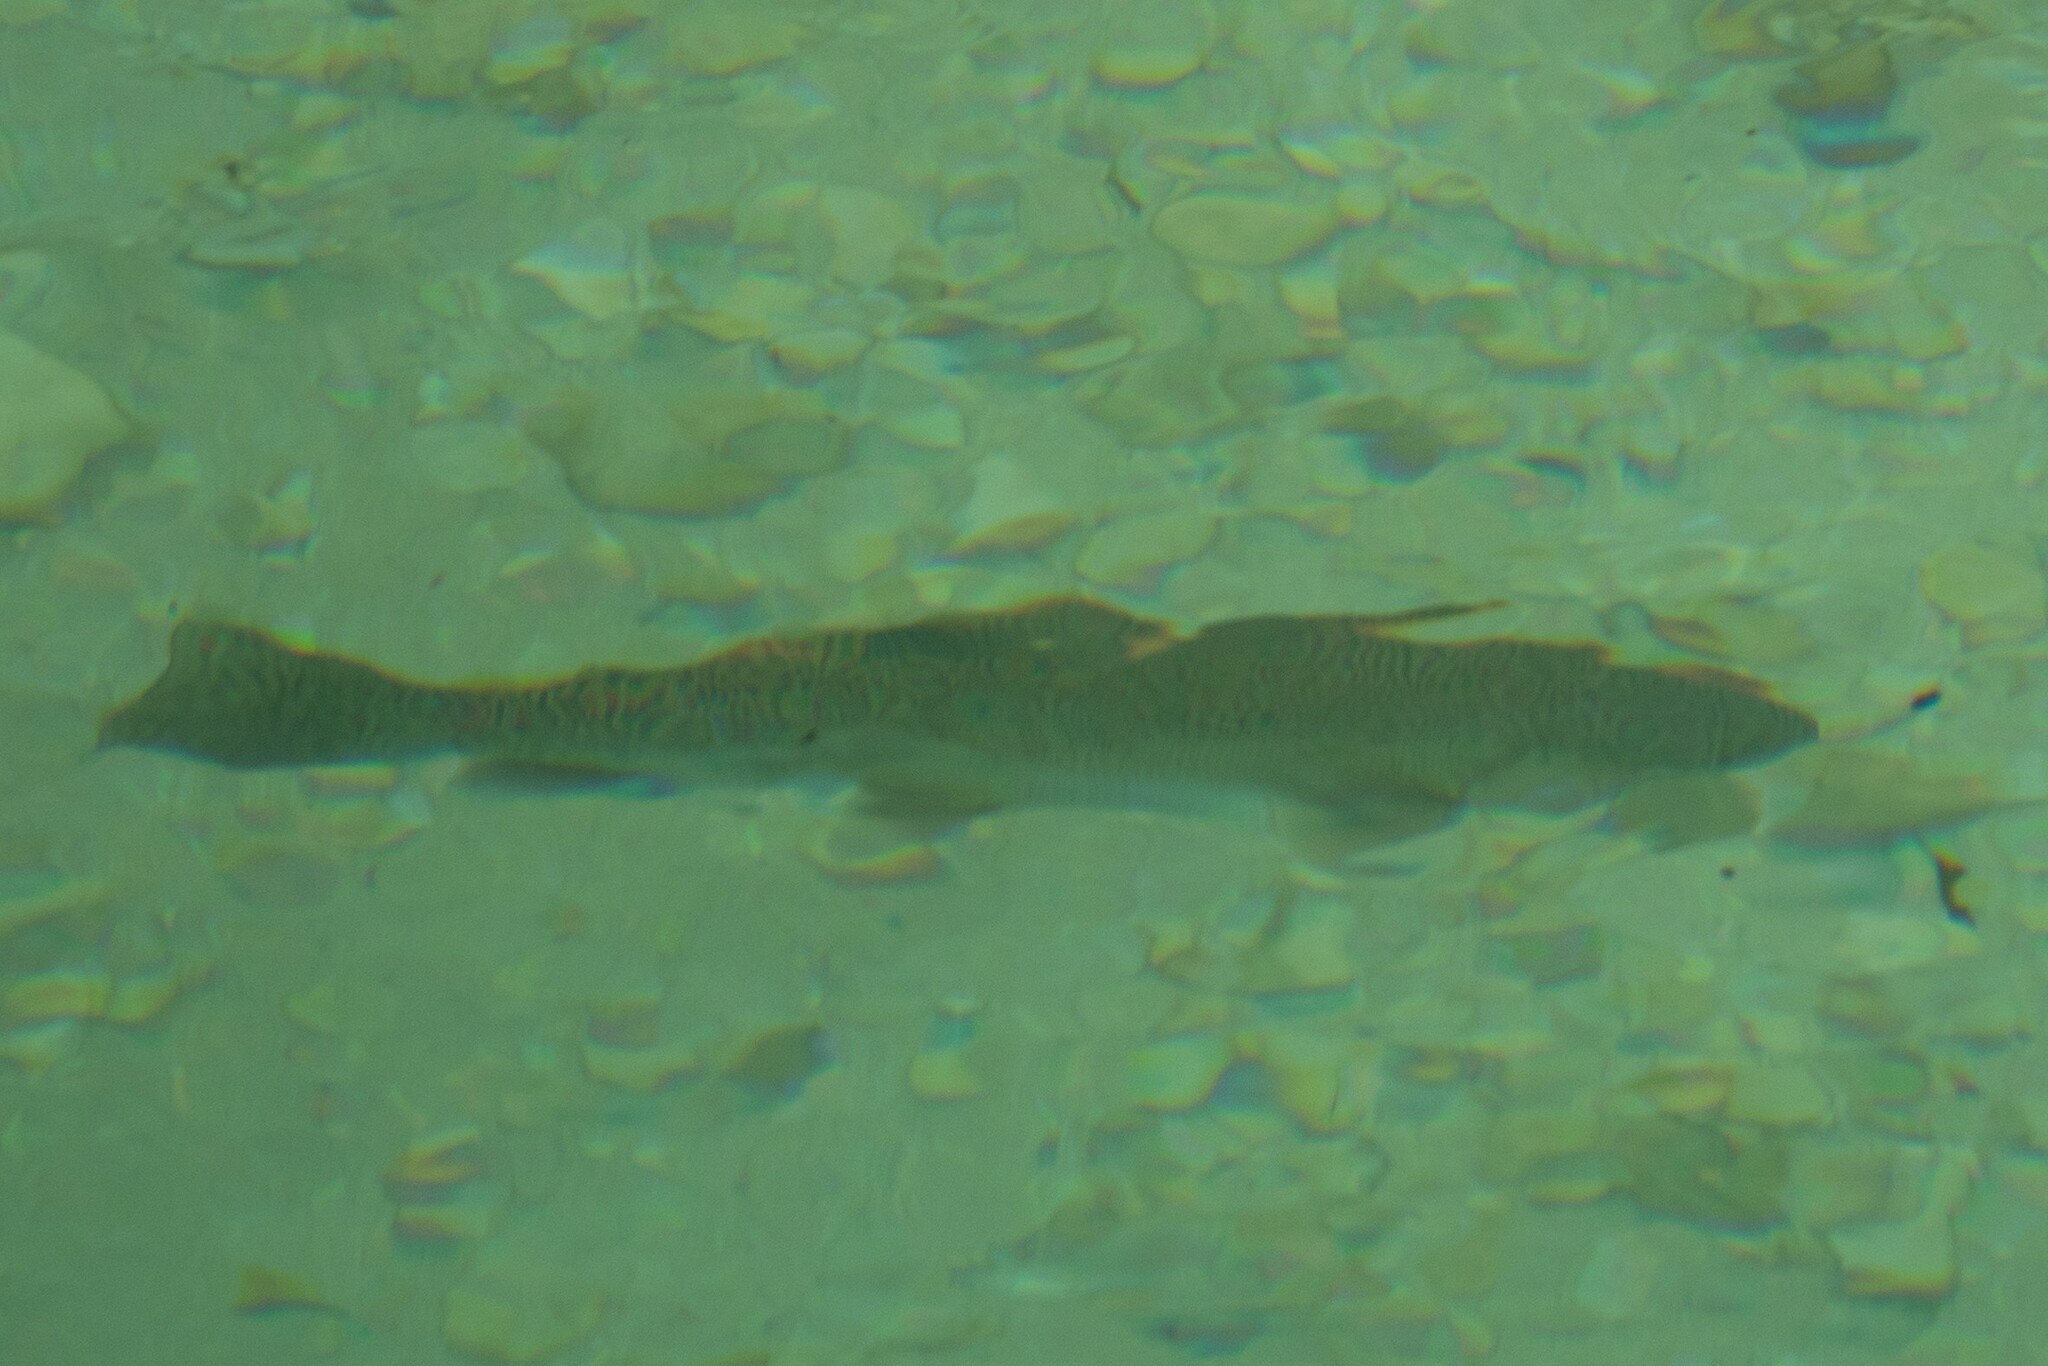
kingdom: Animalia
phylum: Chordata
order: Salmoniformes
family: Salmonidae
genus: Salmo
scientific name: Salmo marmoratus
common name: Marble trout
